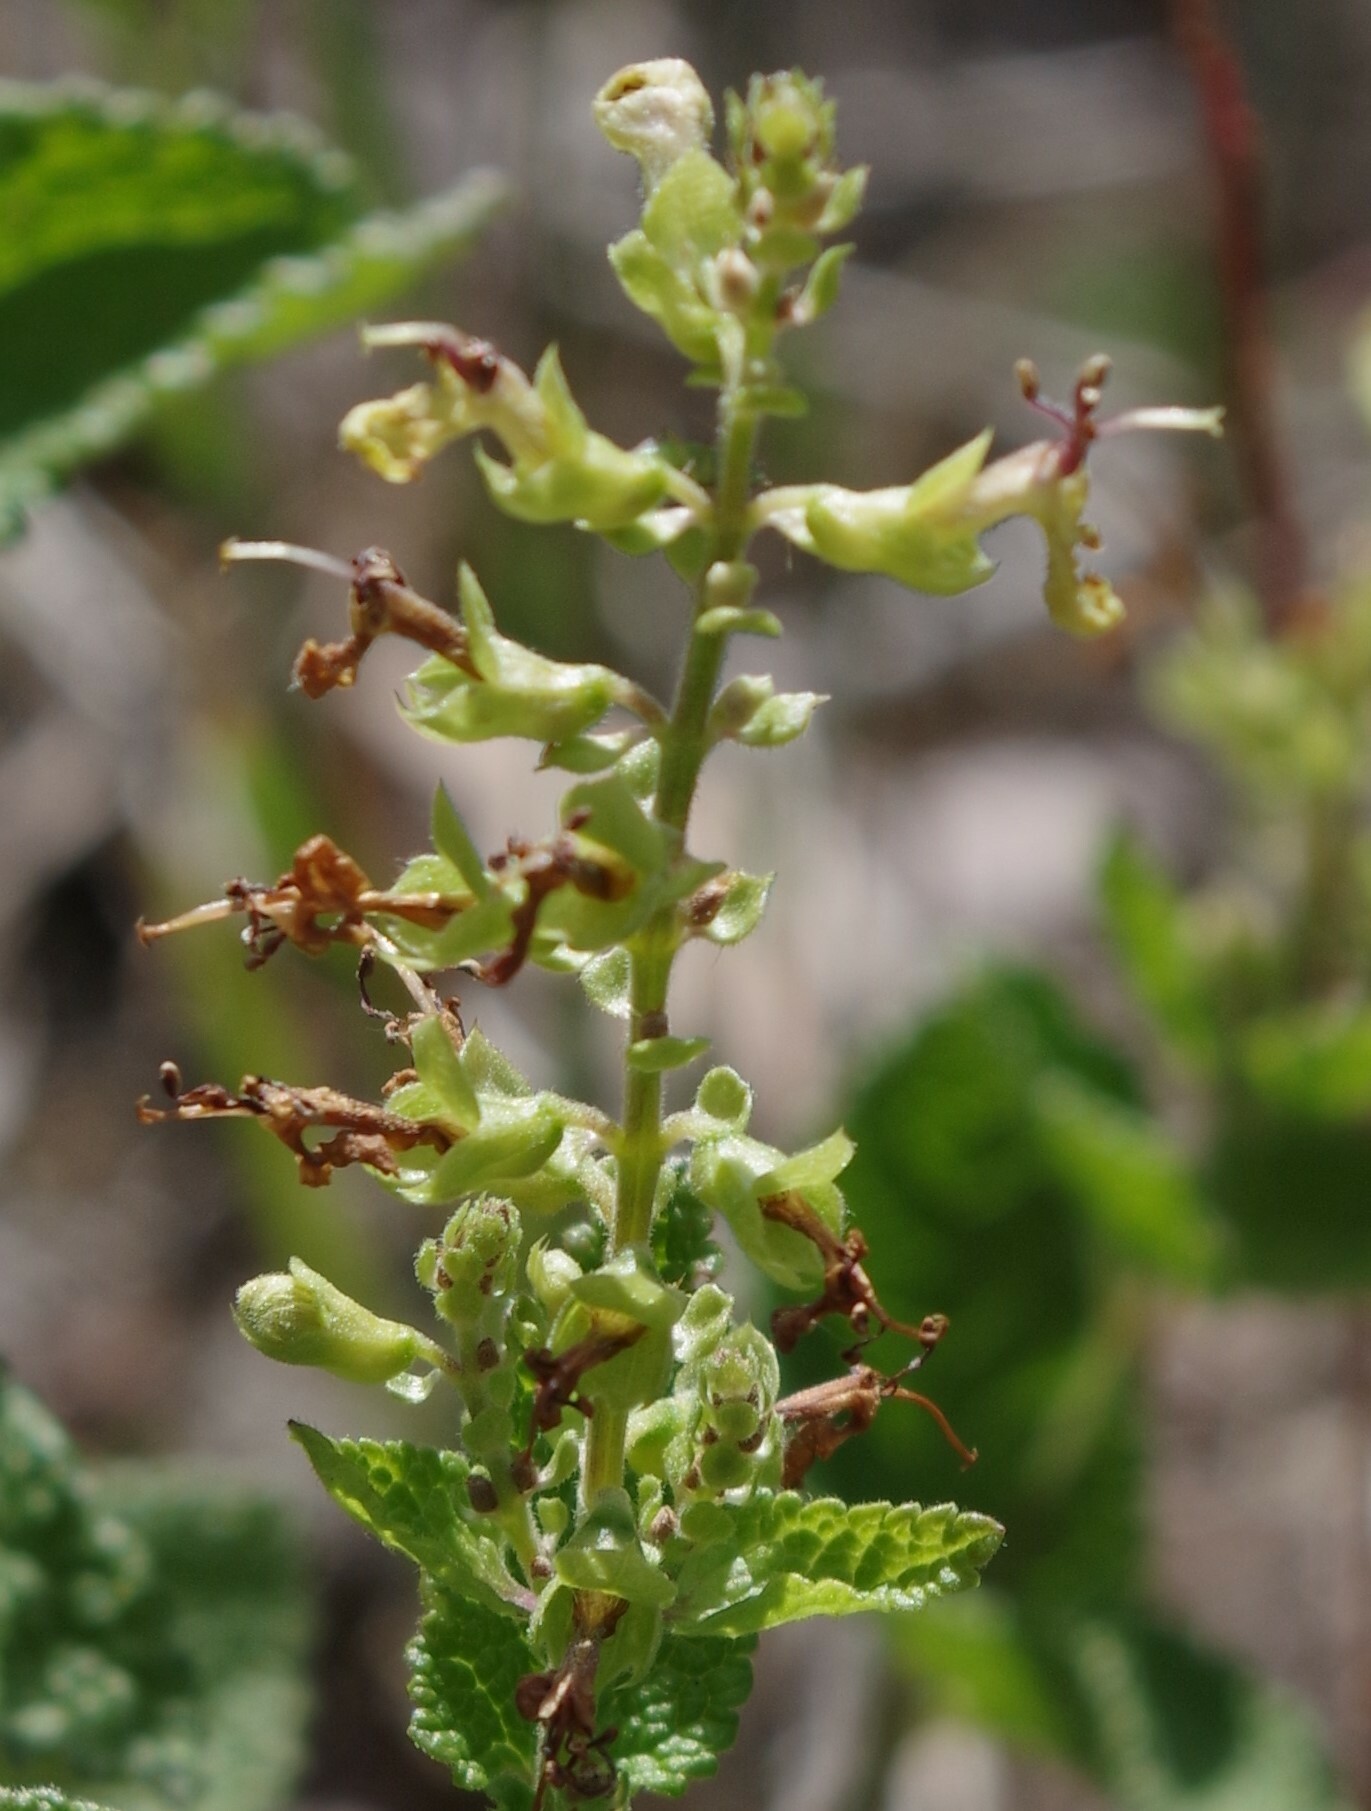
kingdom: Plantae
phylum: Tracheophyta
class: Magnoliopsida
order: Lamiales
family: Lamiaceae
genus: Teucrium
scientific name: Teucrium scorodonia
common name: Woodland germander
